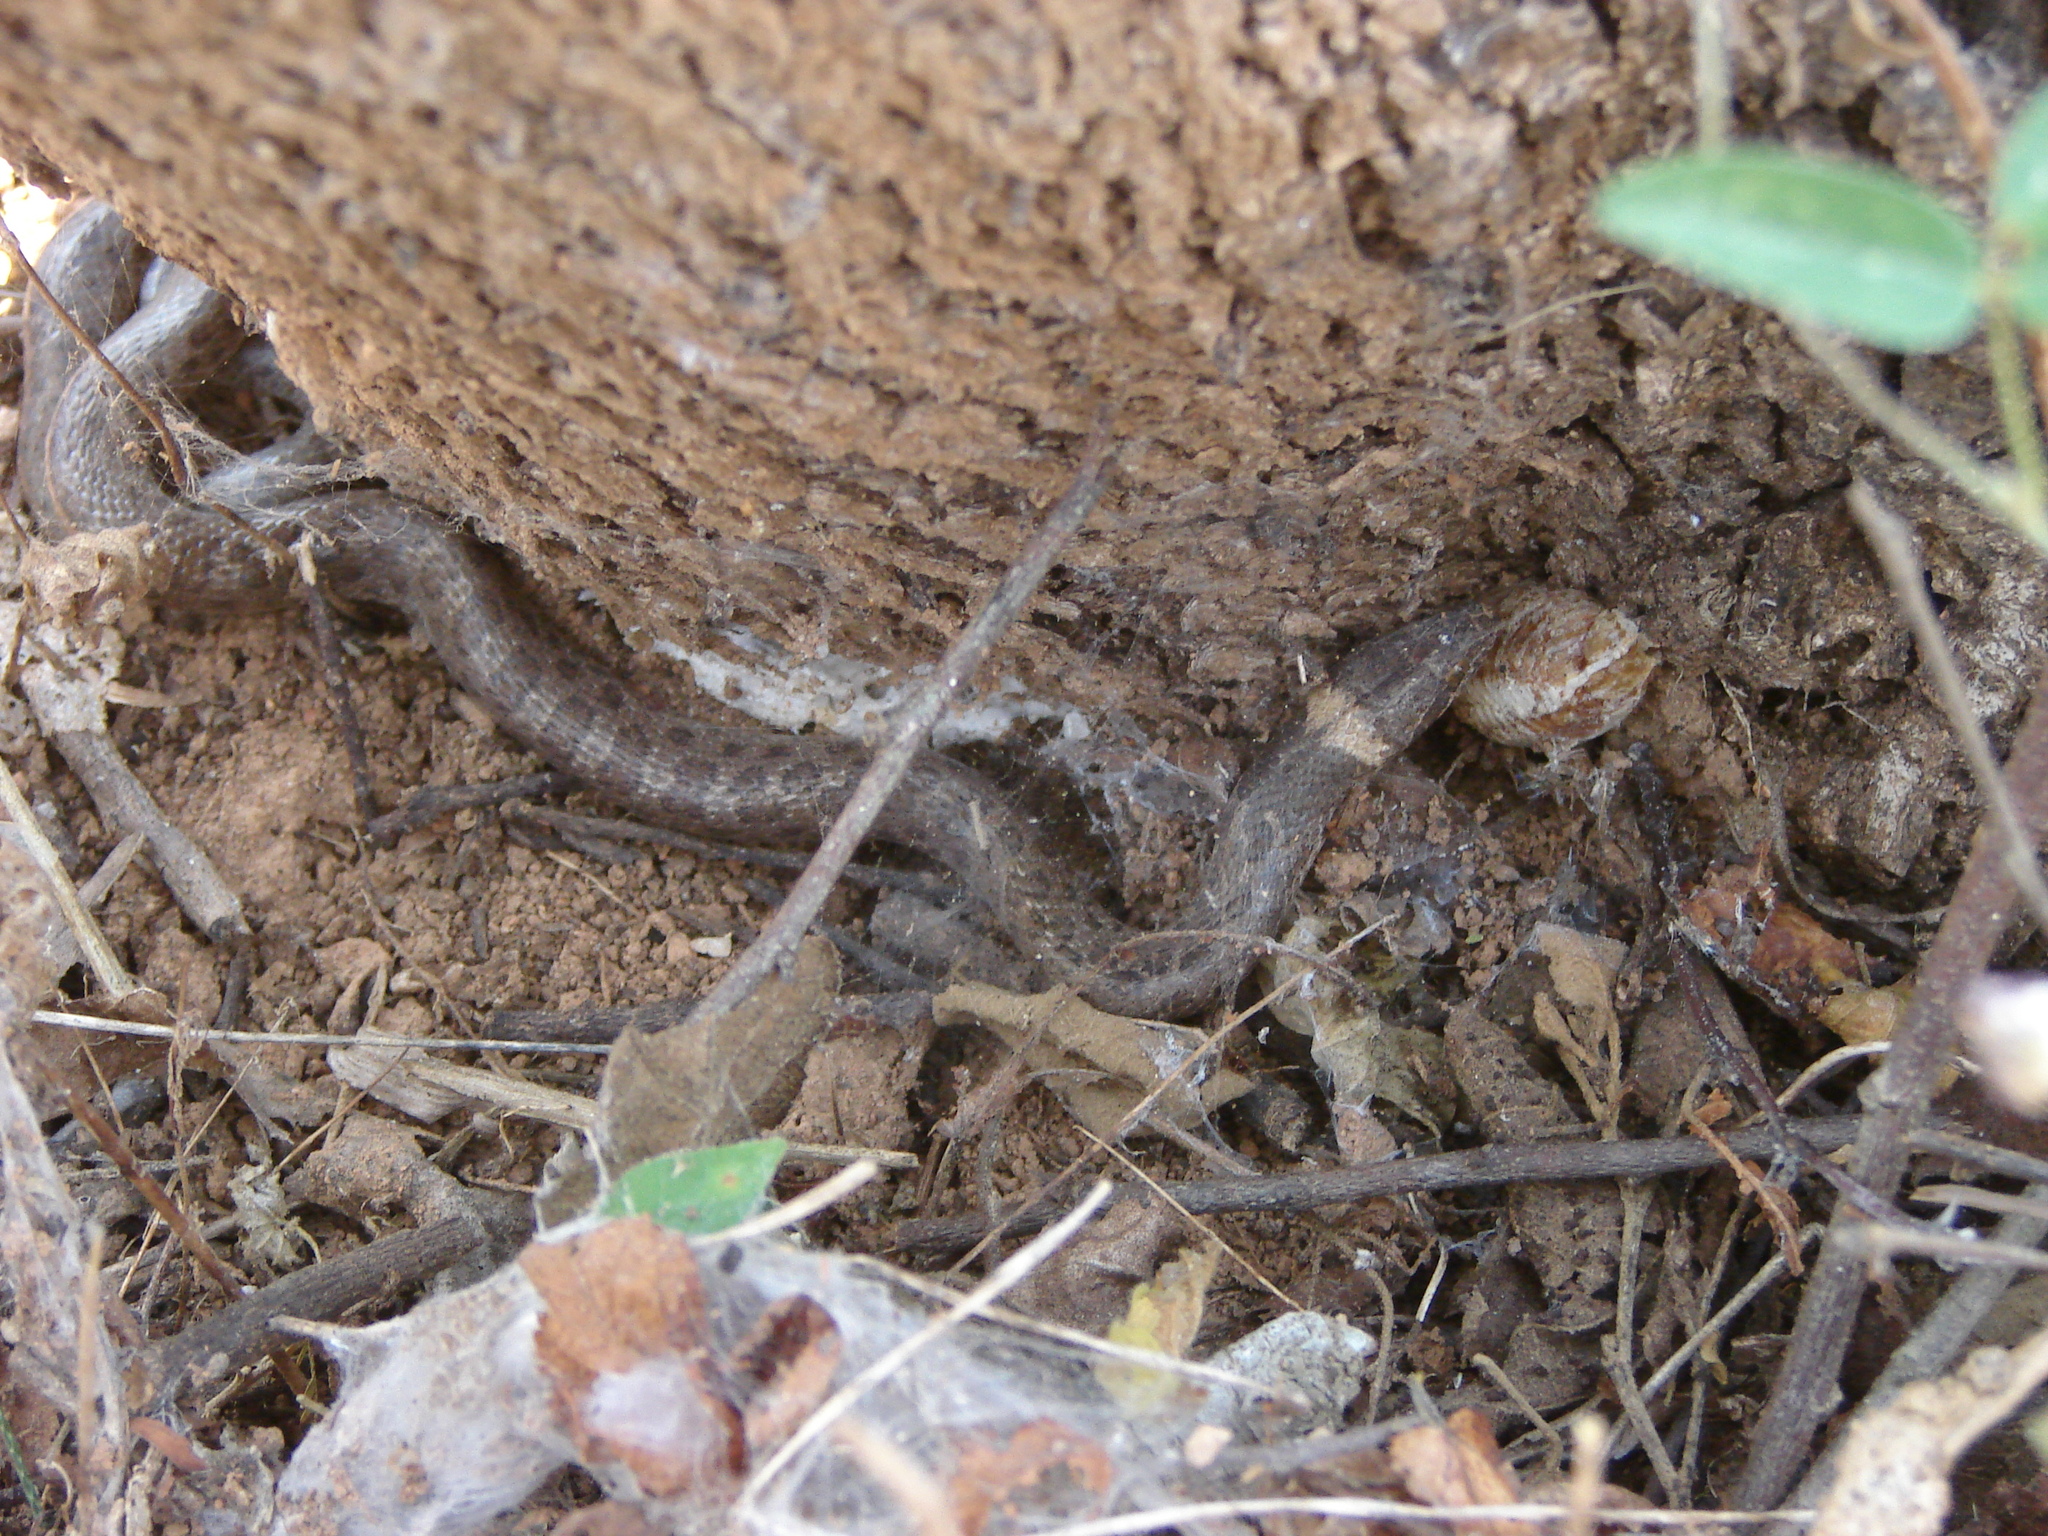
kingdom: Animalia
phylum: Chordata
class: Squamata
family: Colubridae
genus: Hypsiglena
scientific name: Hypsiglena torquata
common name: Night snake
